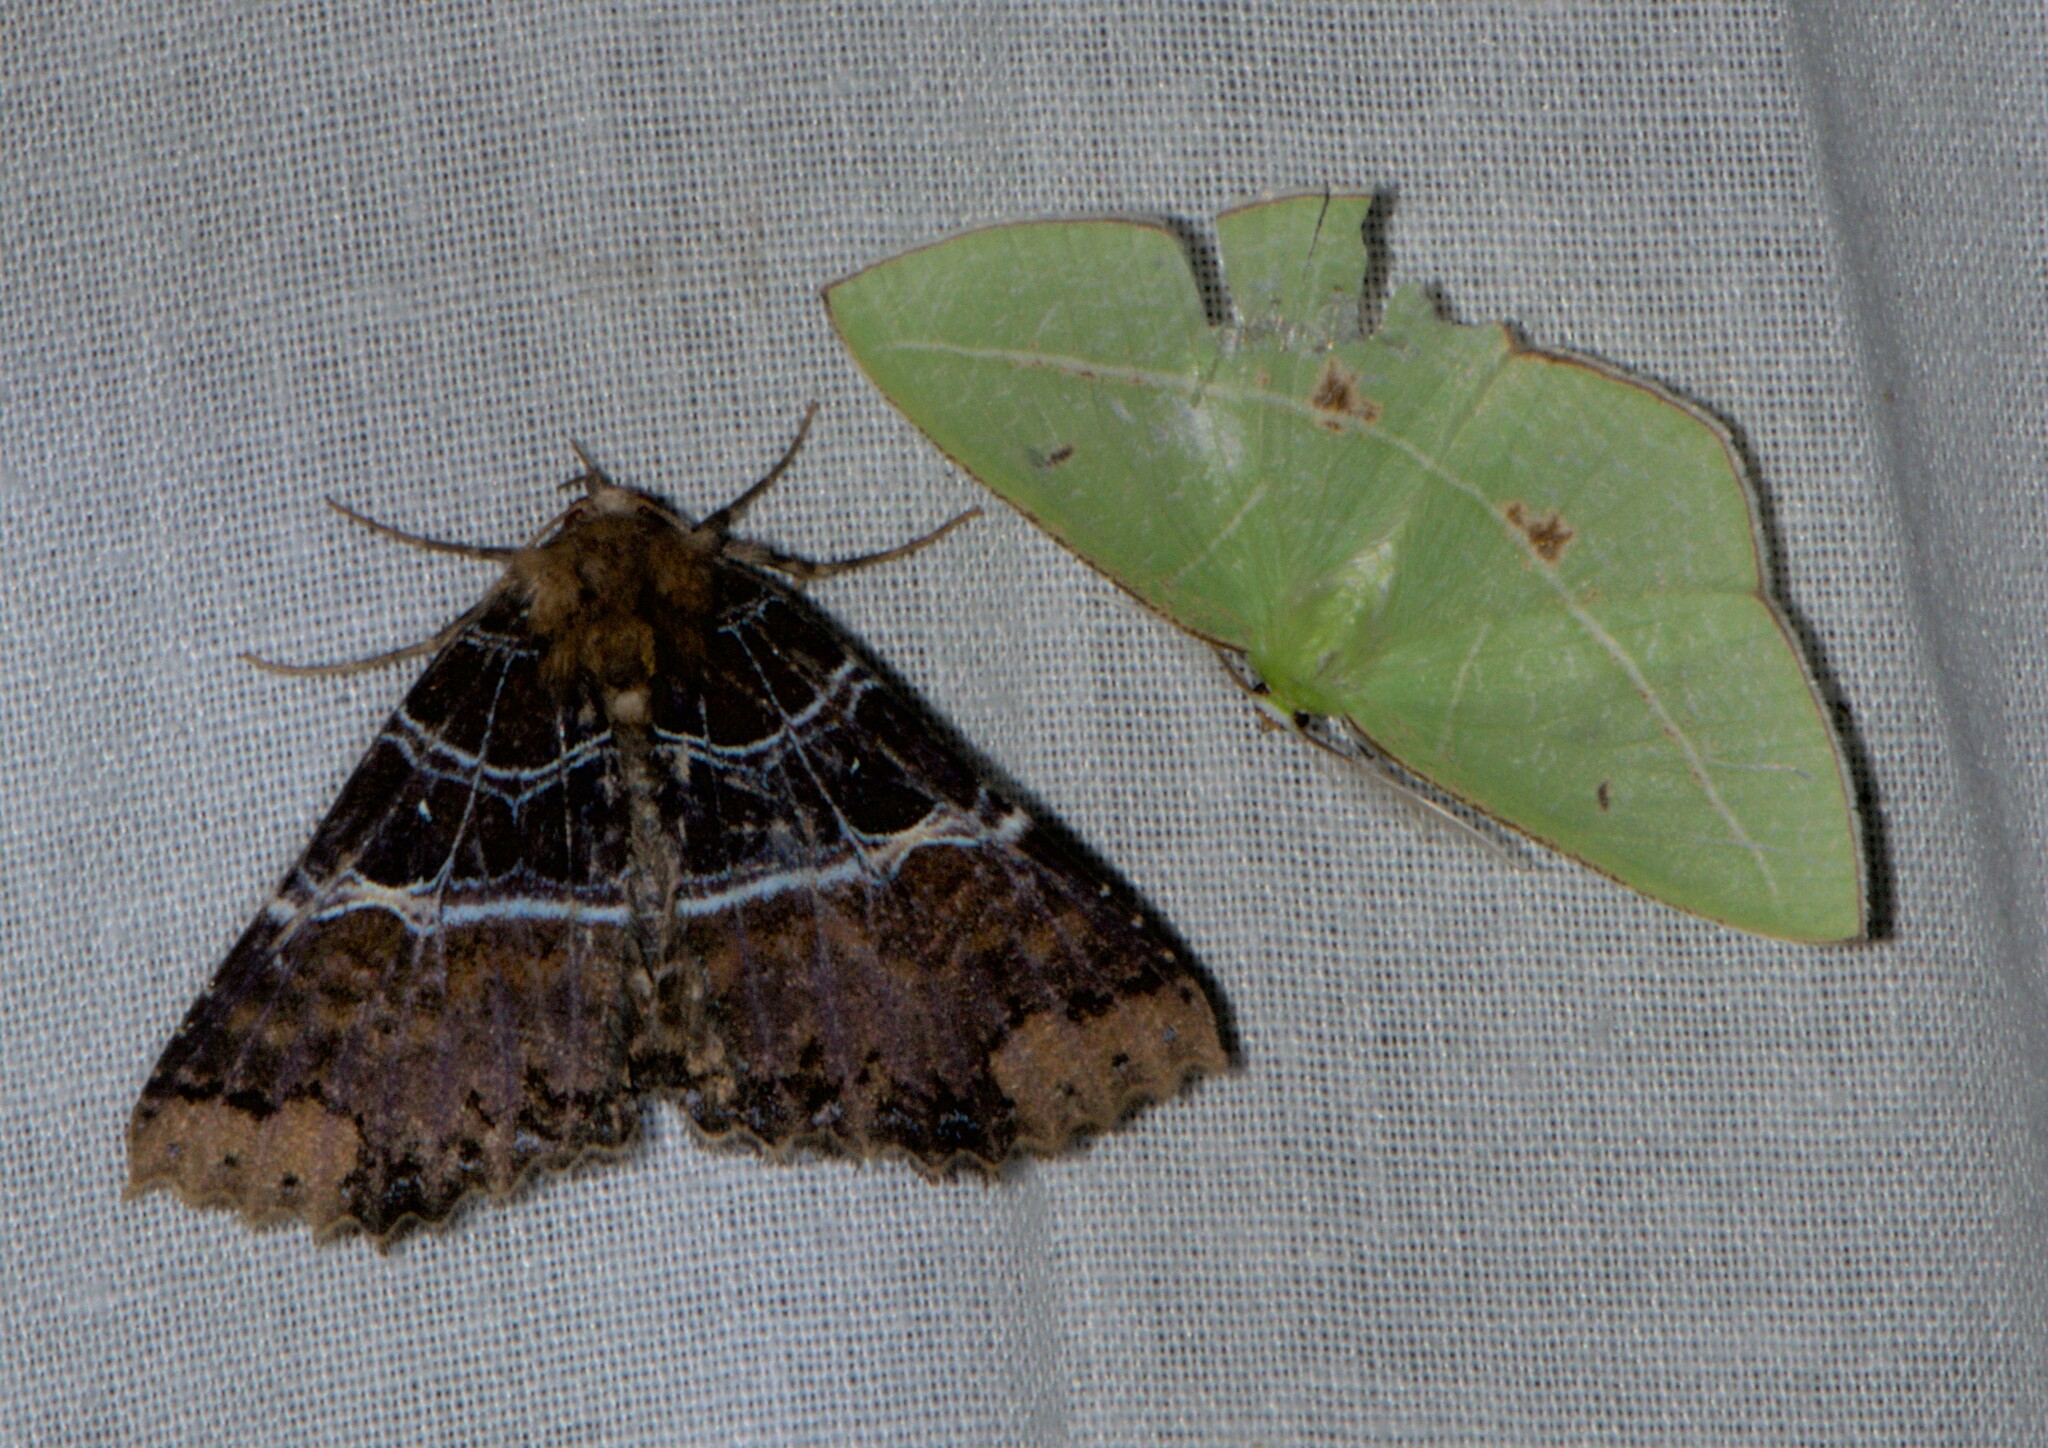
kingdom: Animalia
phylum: Arthropoda
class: Insecta
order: Lepidoptera
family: Erebidae
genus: Sypnoides
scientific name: Sypnoides
